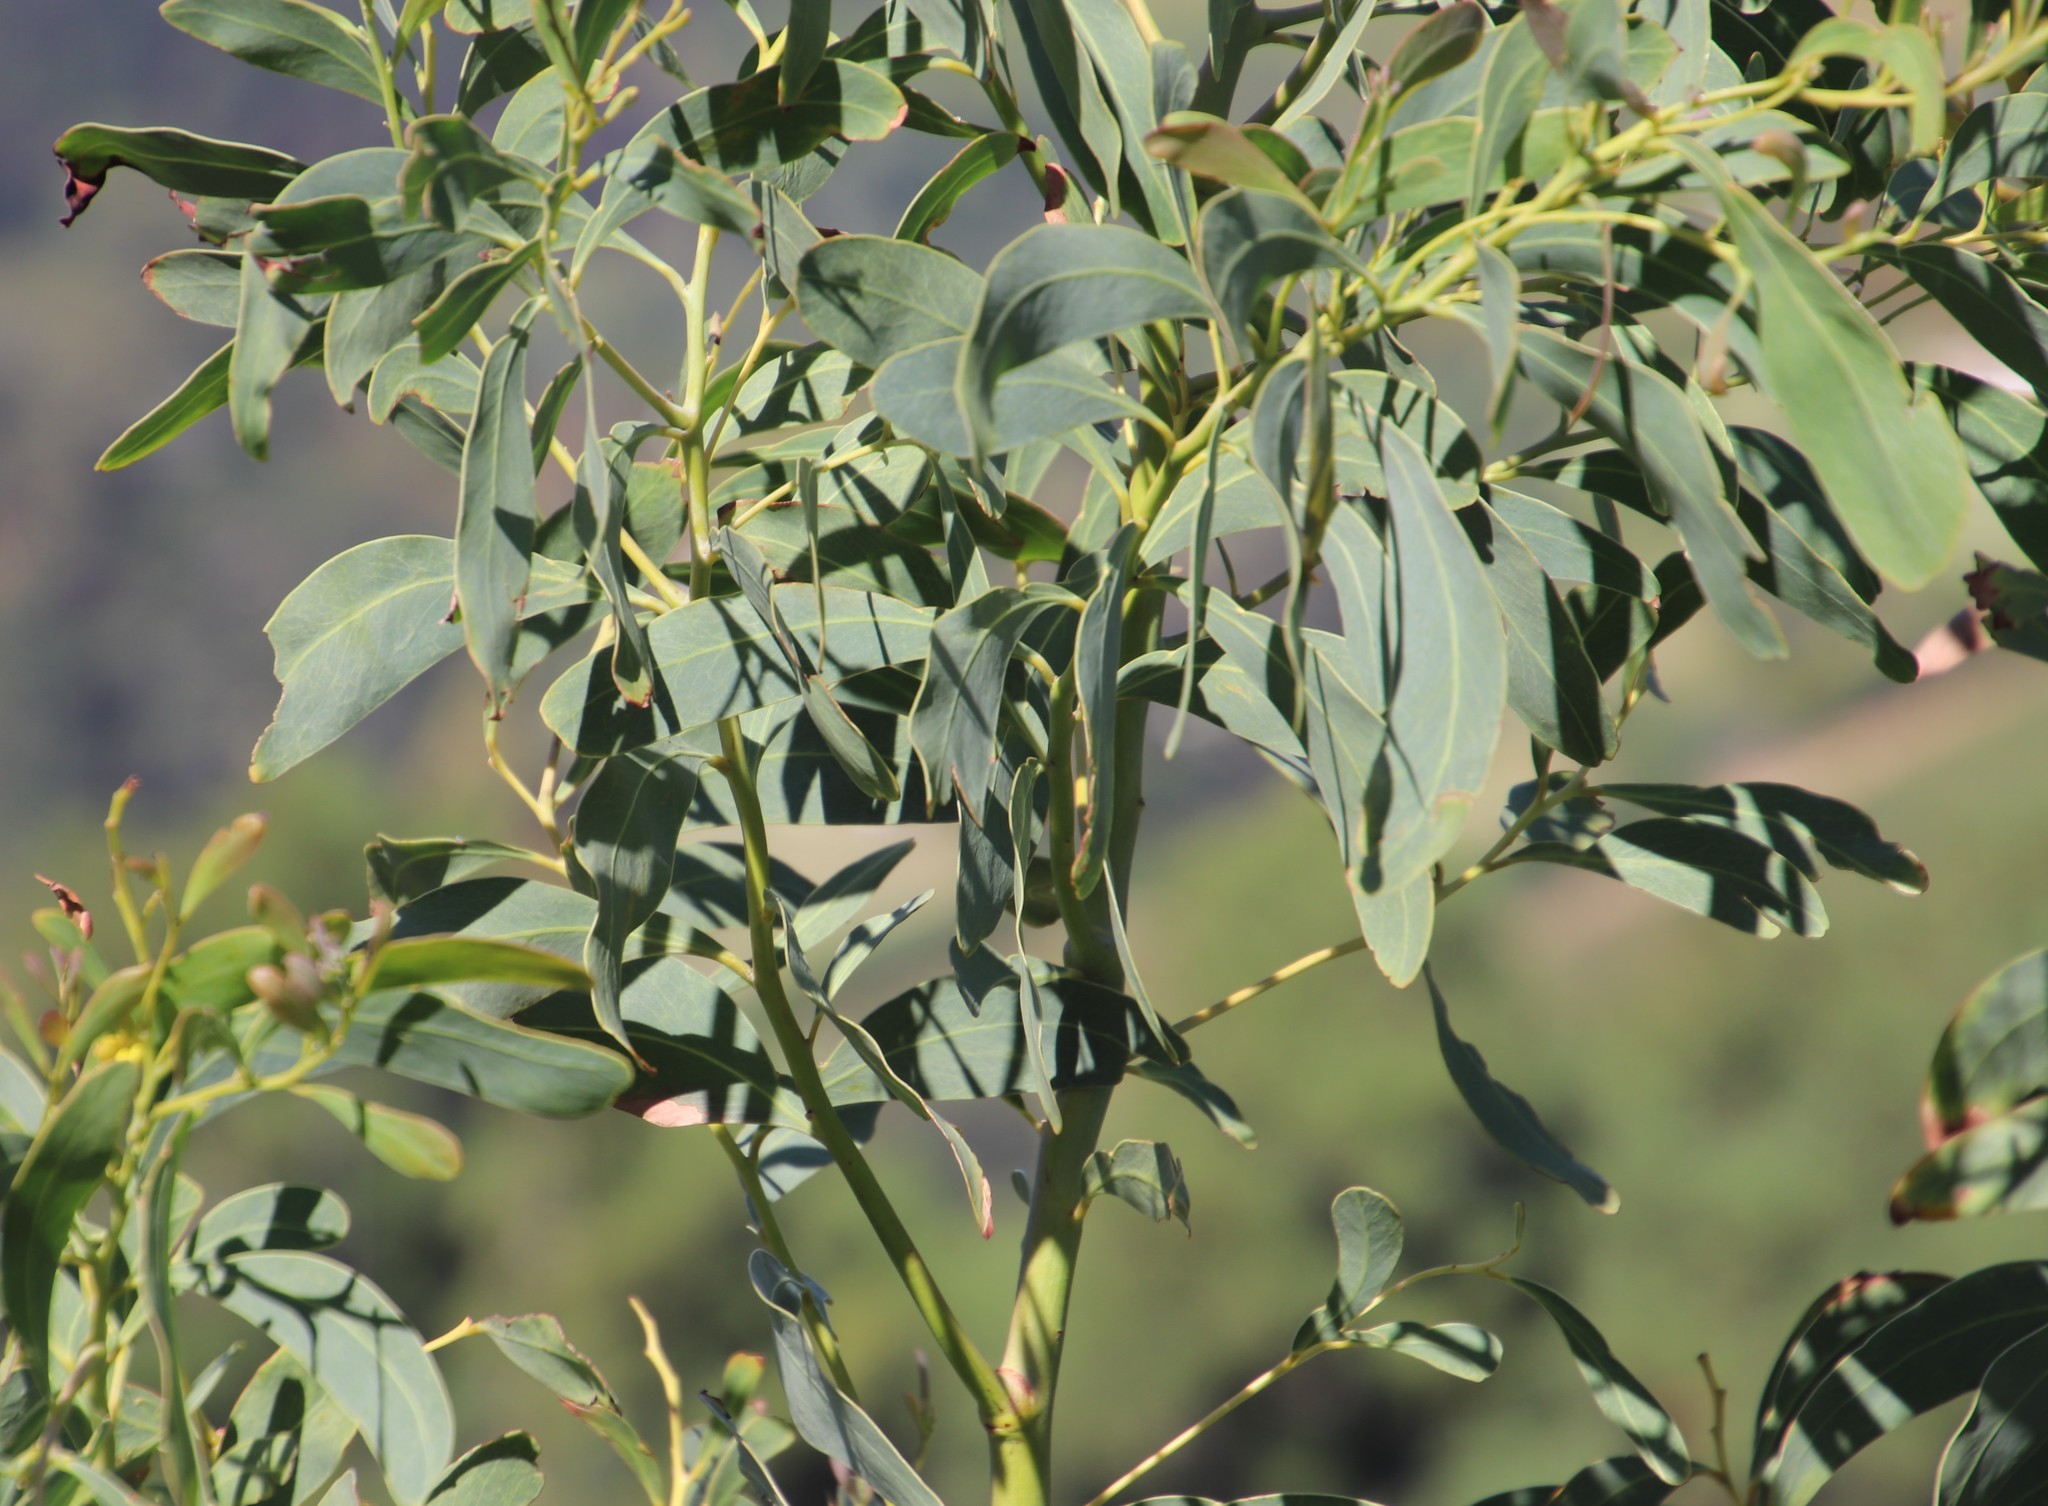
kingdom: Plantae
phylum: Tracheophyta
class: Magnoliopsida
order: Fabales
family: Fabaceae
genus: Acacia
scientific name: Acacia falciformis
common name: Tanning wattle
